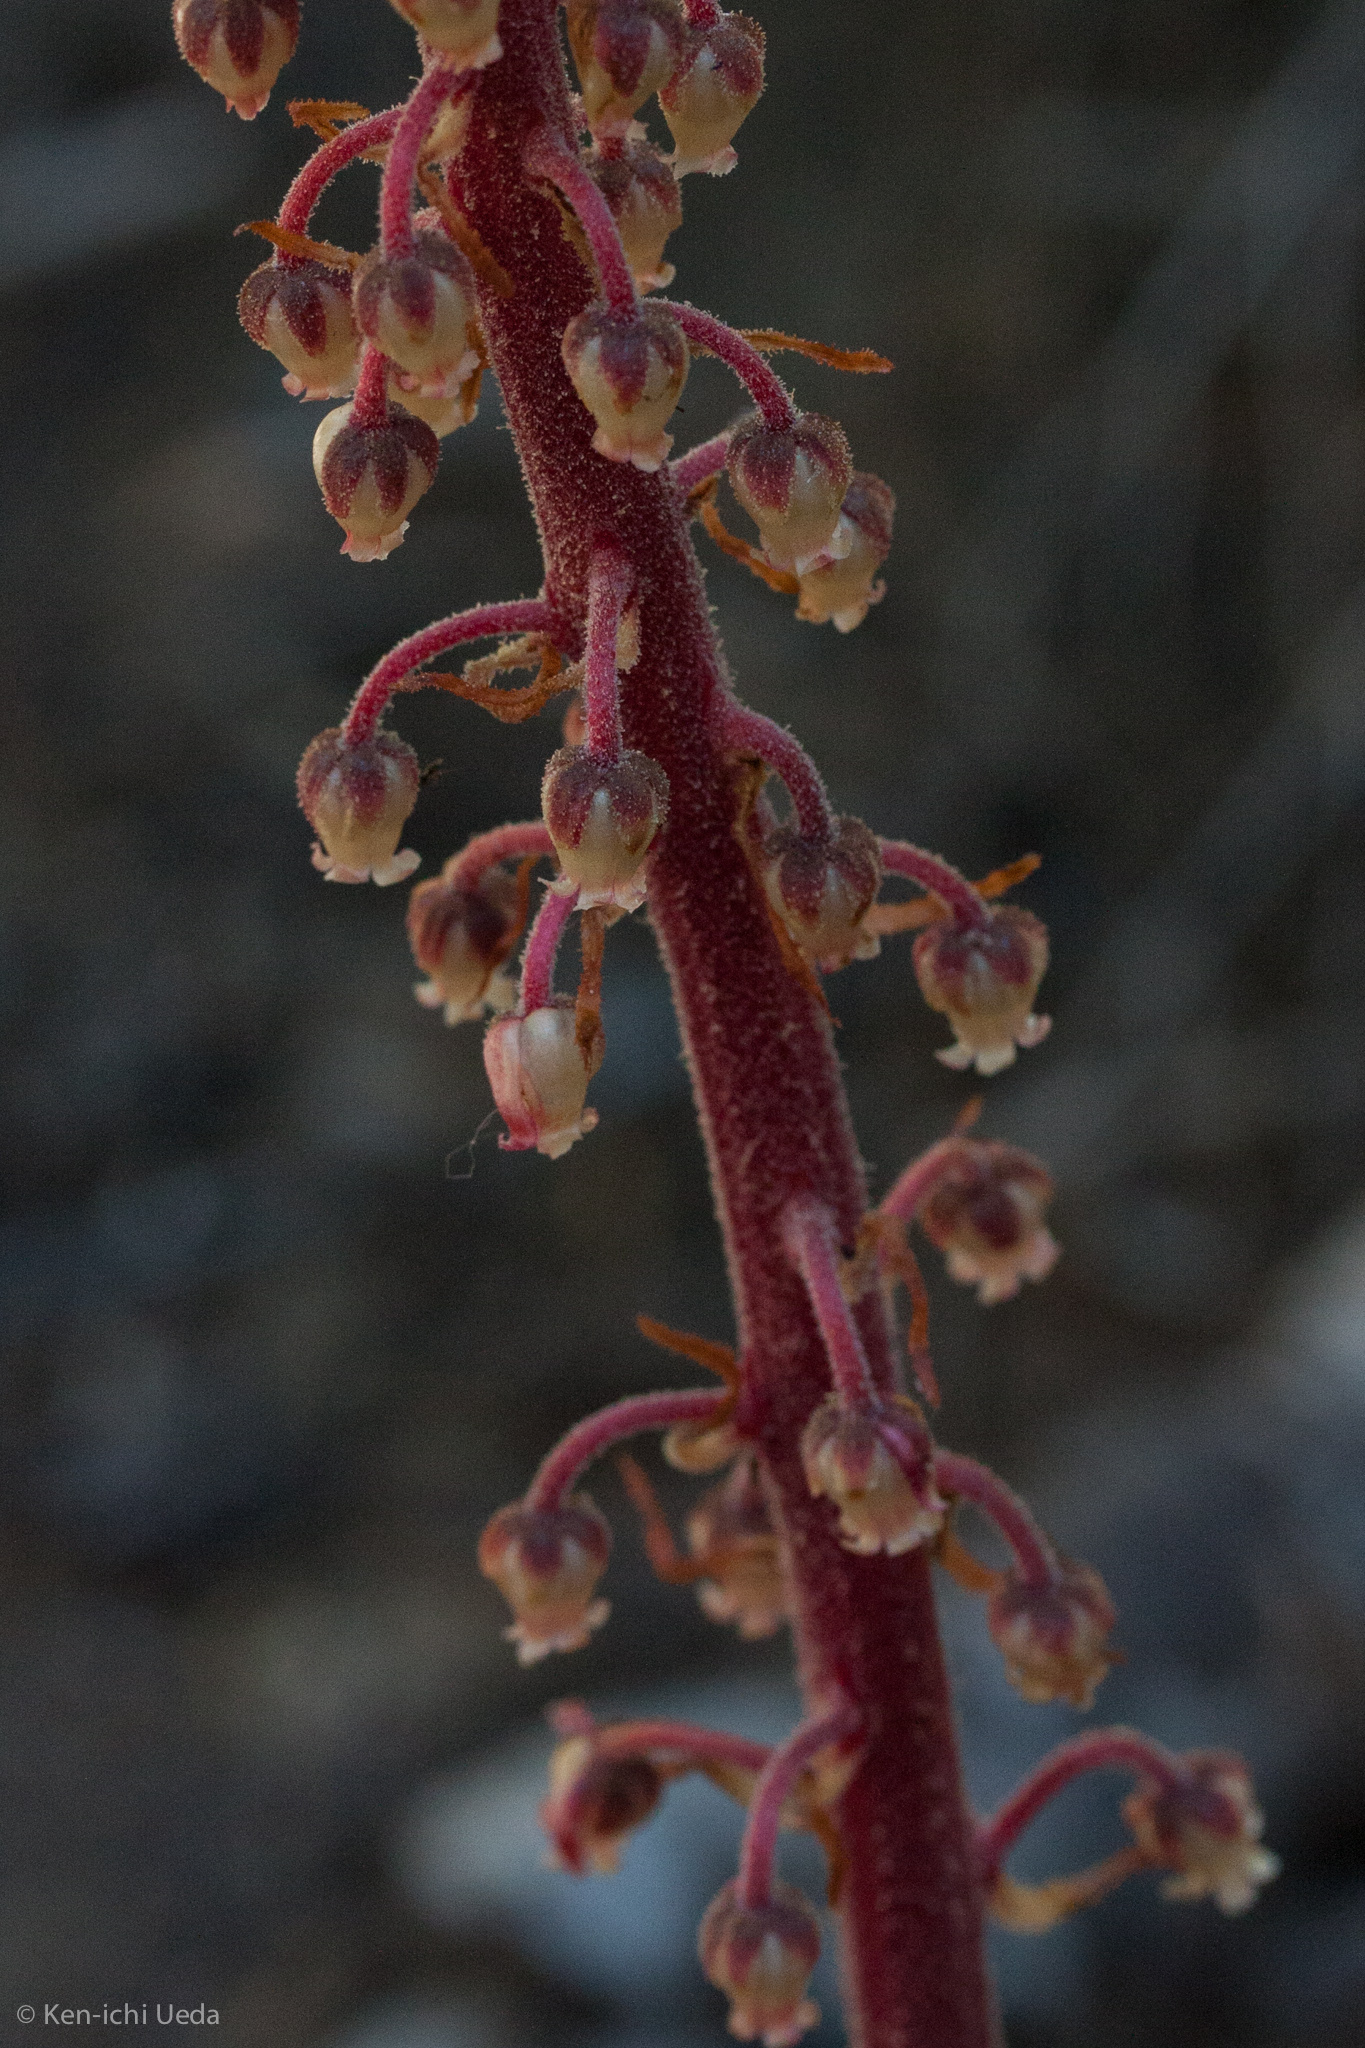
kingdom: Plantae
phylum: Tracheophyta
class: Magnoliopsida
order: Ericales
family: Ericaceae
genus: Pterospora
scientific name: Pterospora andromedea
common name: Giant bird's-nest
